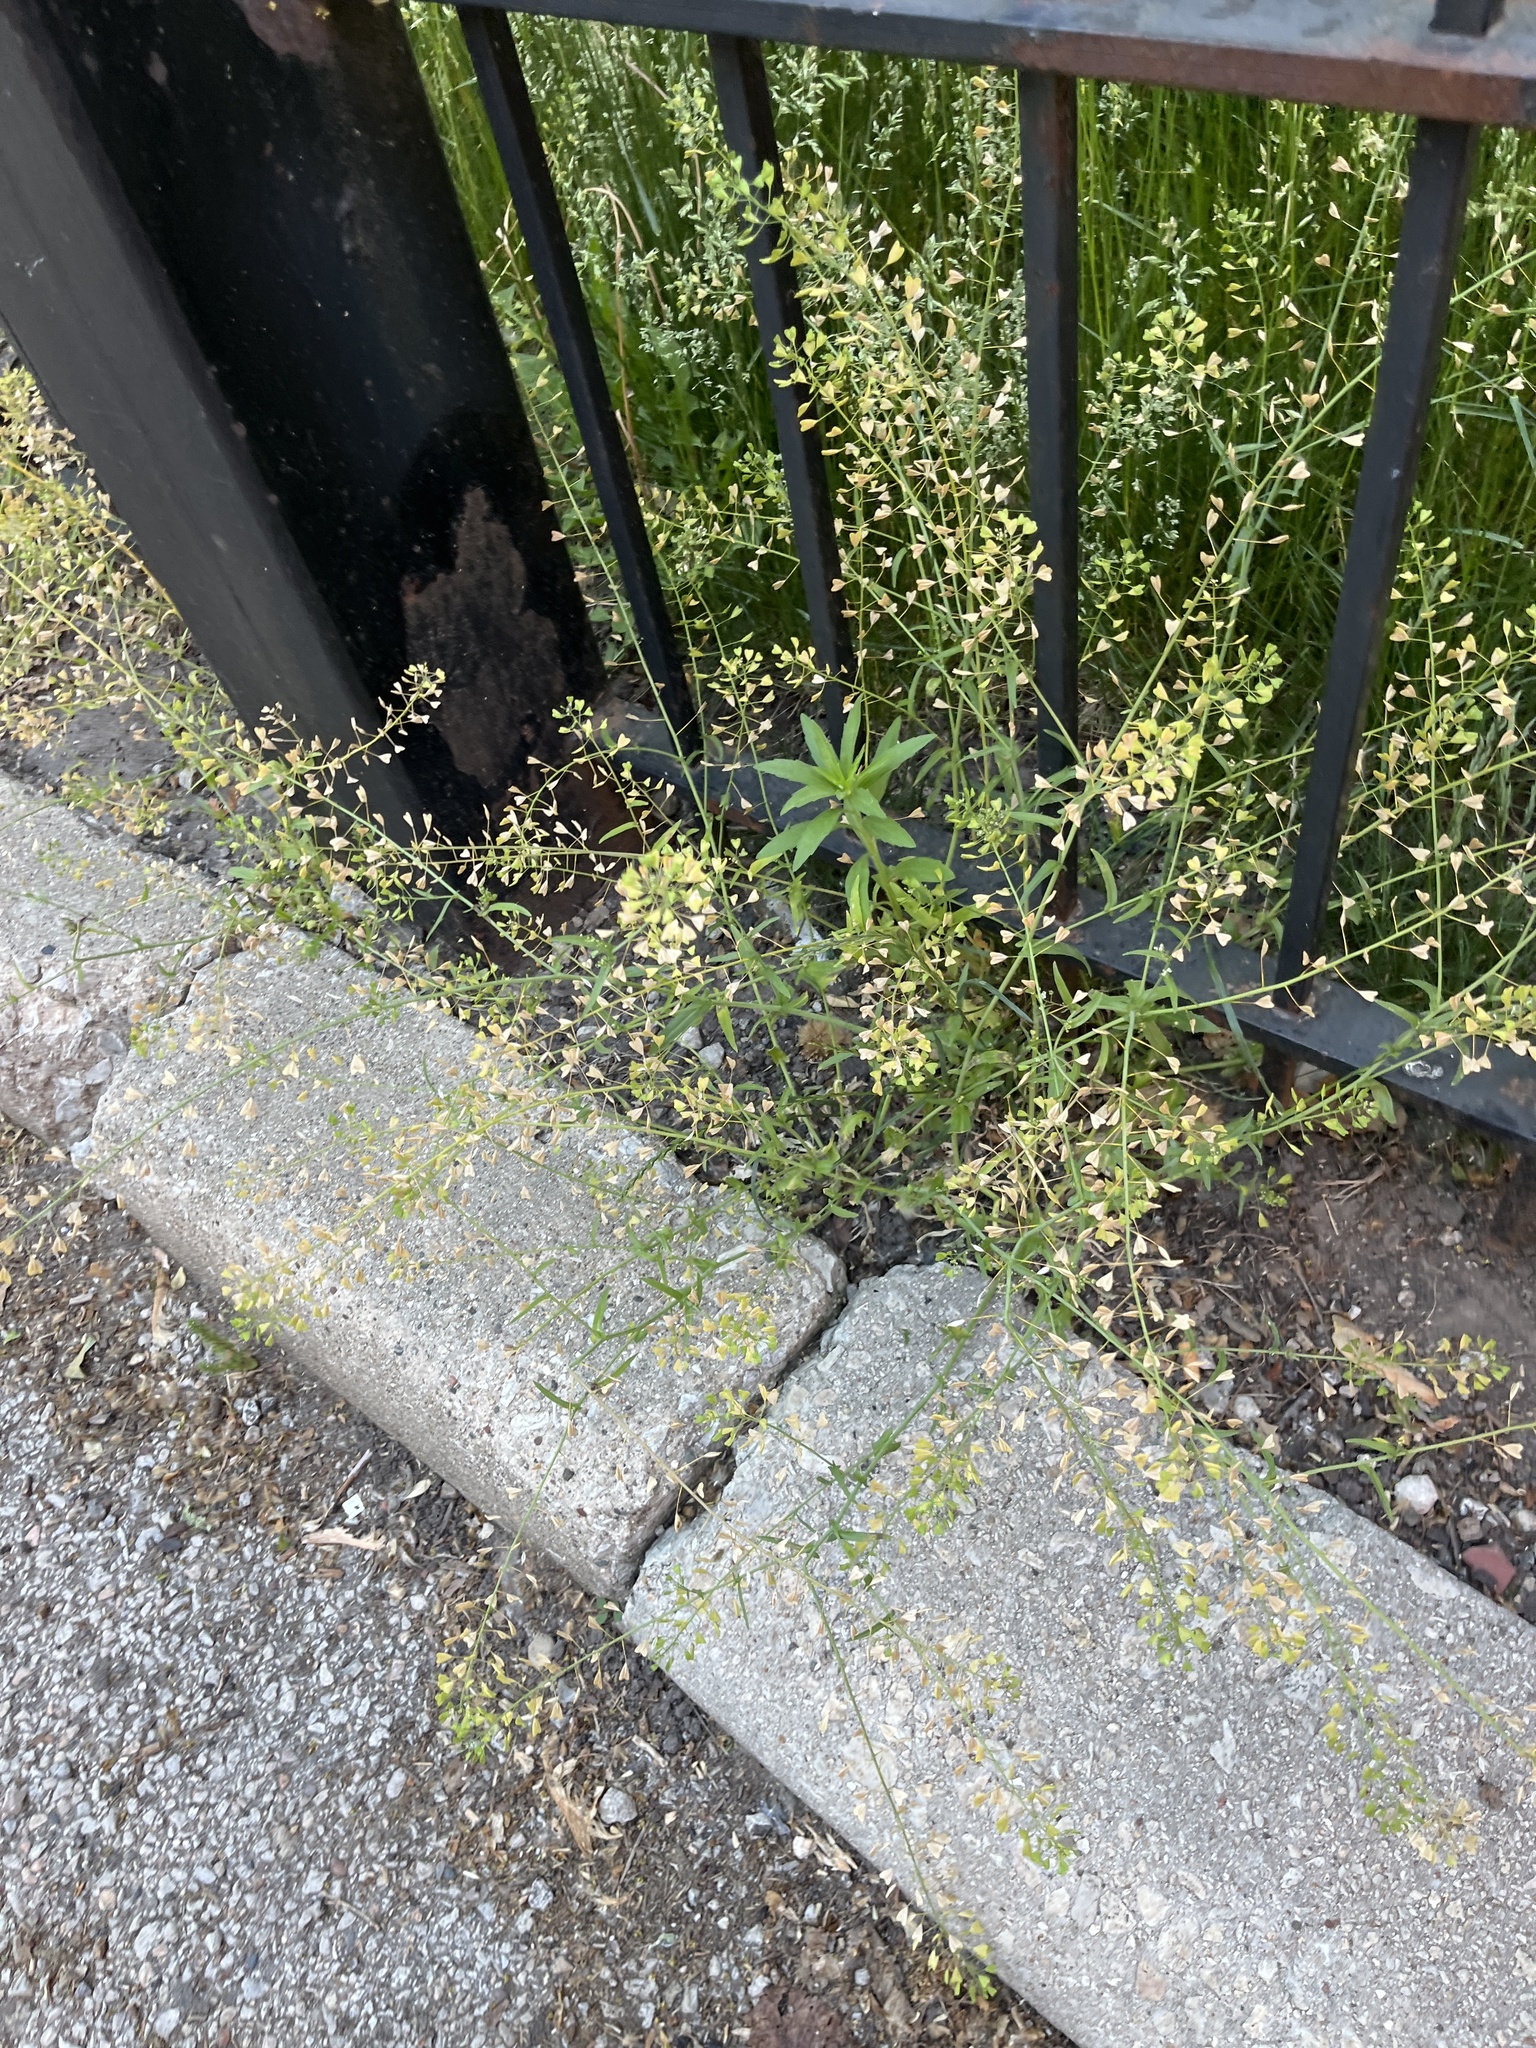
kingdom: Plantae
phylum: Tracheophyta
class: Magnoliopsida
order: Brassicales
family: Brassicaceae
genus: Capsella
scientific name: Capsella bursa-pastoris
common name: Shepherd's purse
